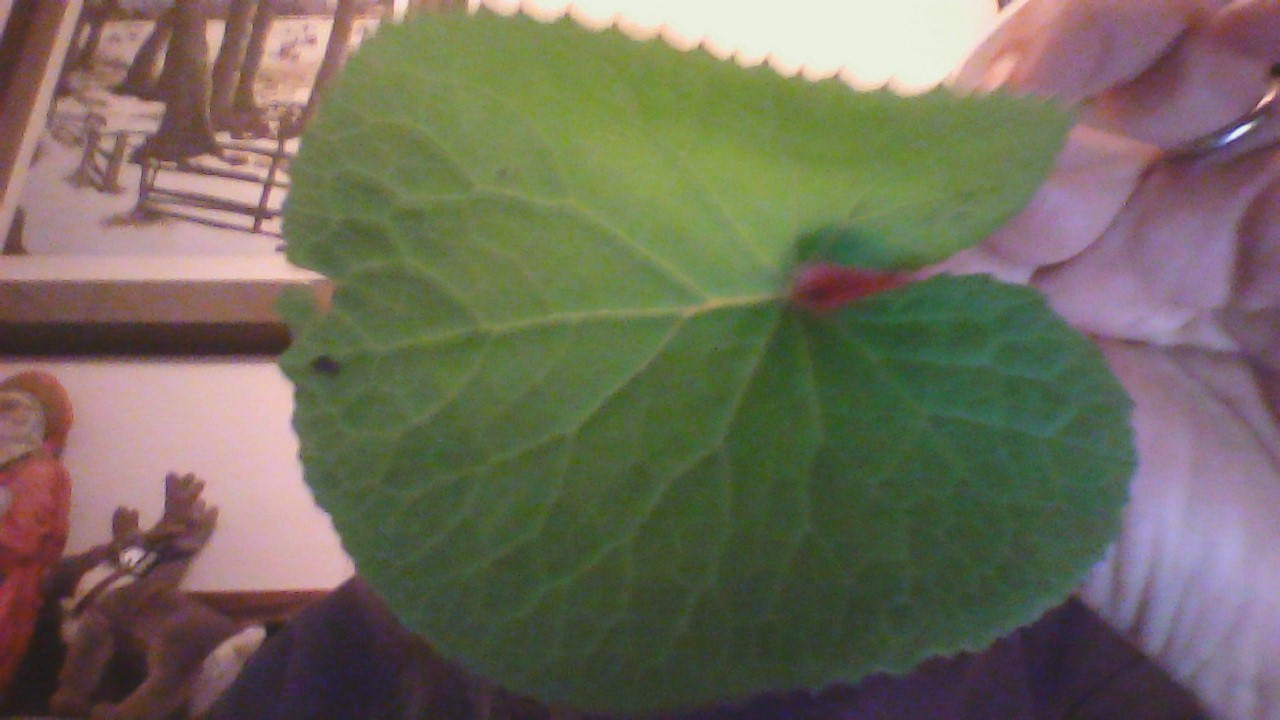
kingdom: Plantae
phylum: Tracheophyta
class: Magnoliopsida
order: Asterales
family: Asteraceae
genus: Petasites
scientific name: Petasites pyrenaicus
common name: Winter heliotrope
